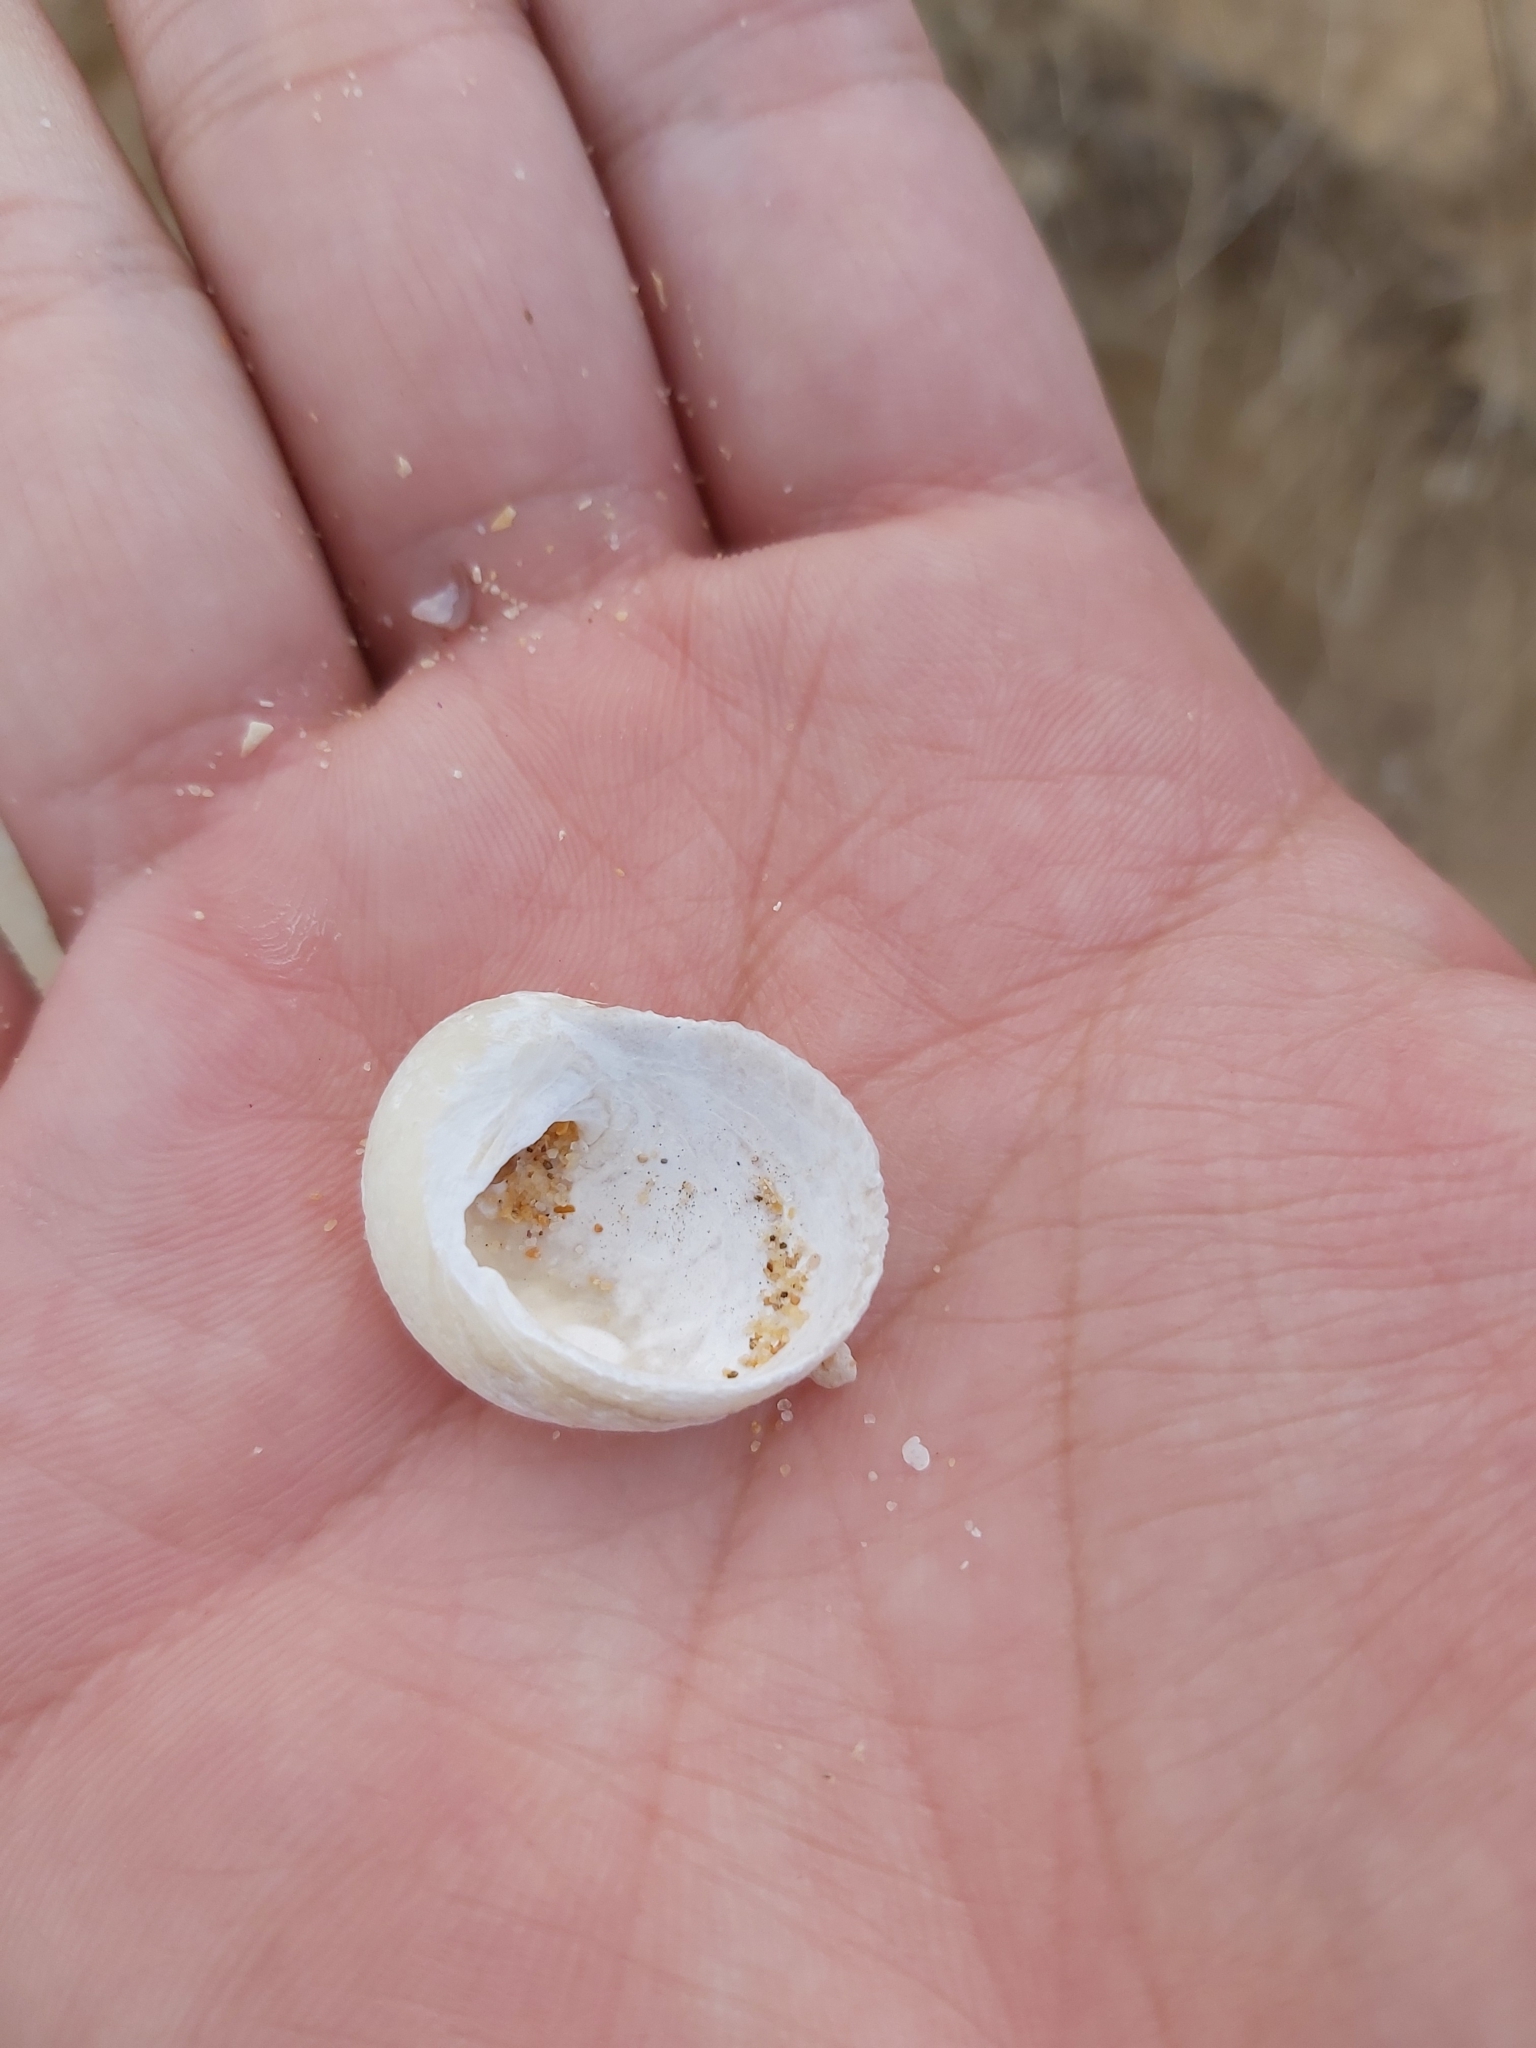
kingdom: Animalia
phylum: Mollusca
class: Gastropoda
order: Seguenziida
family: Chilodontaidae
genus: Granata
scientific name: Granata imbricata
